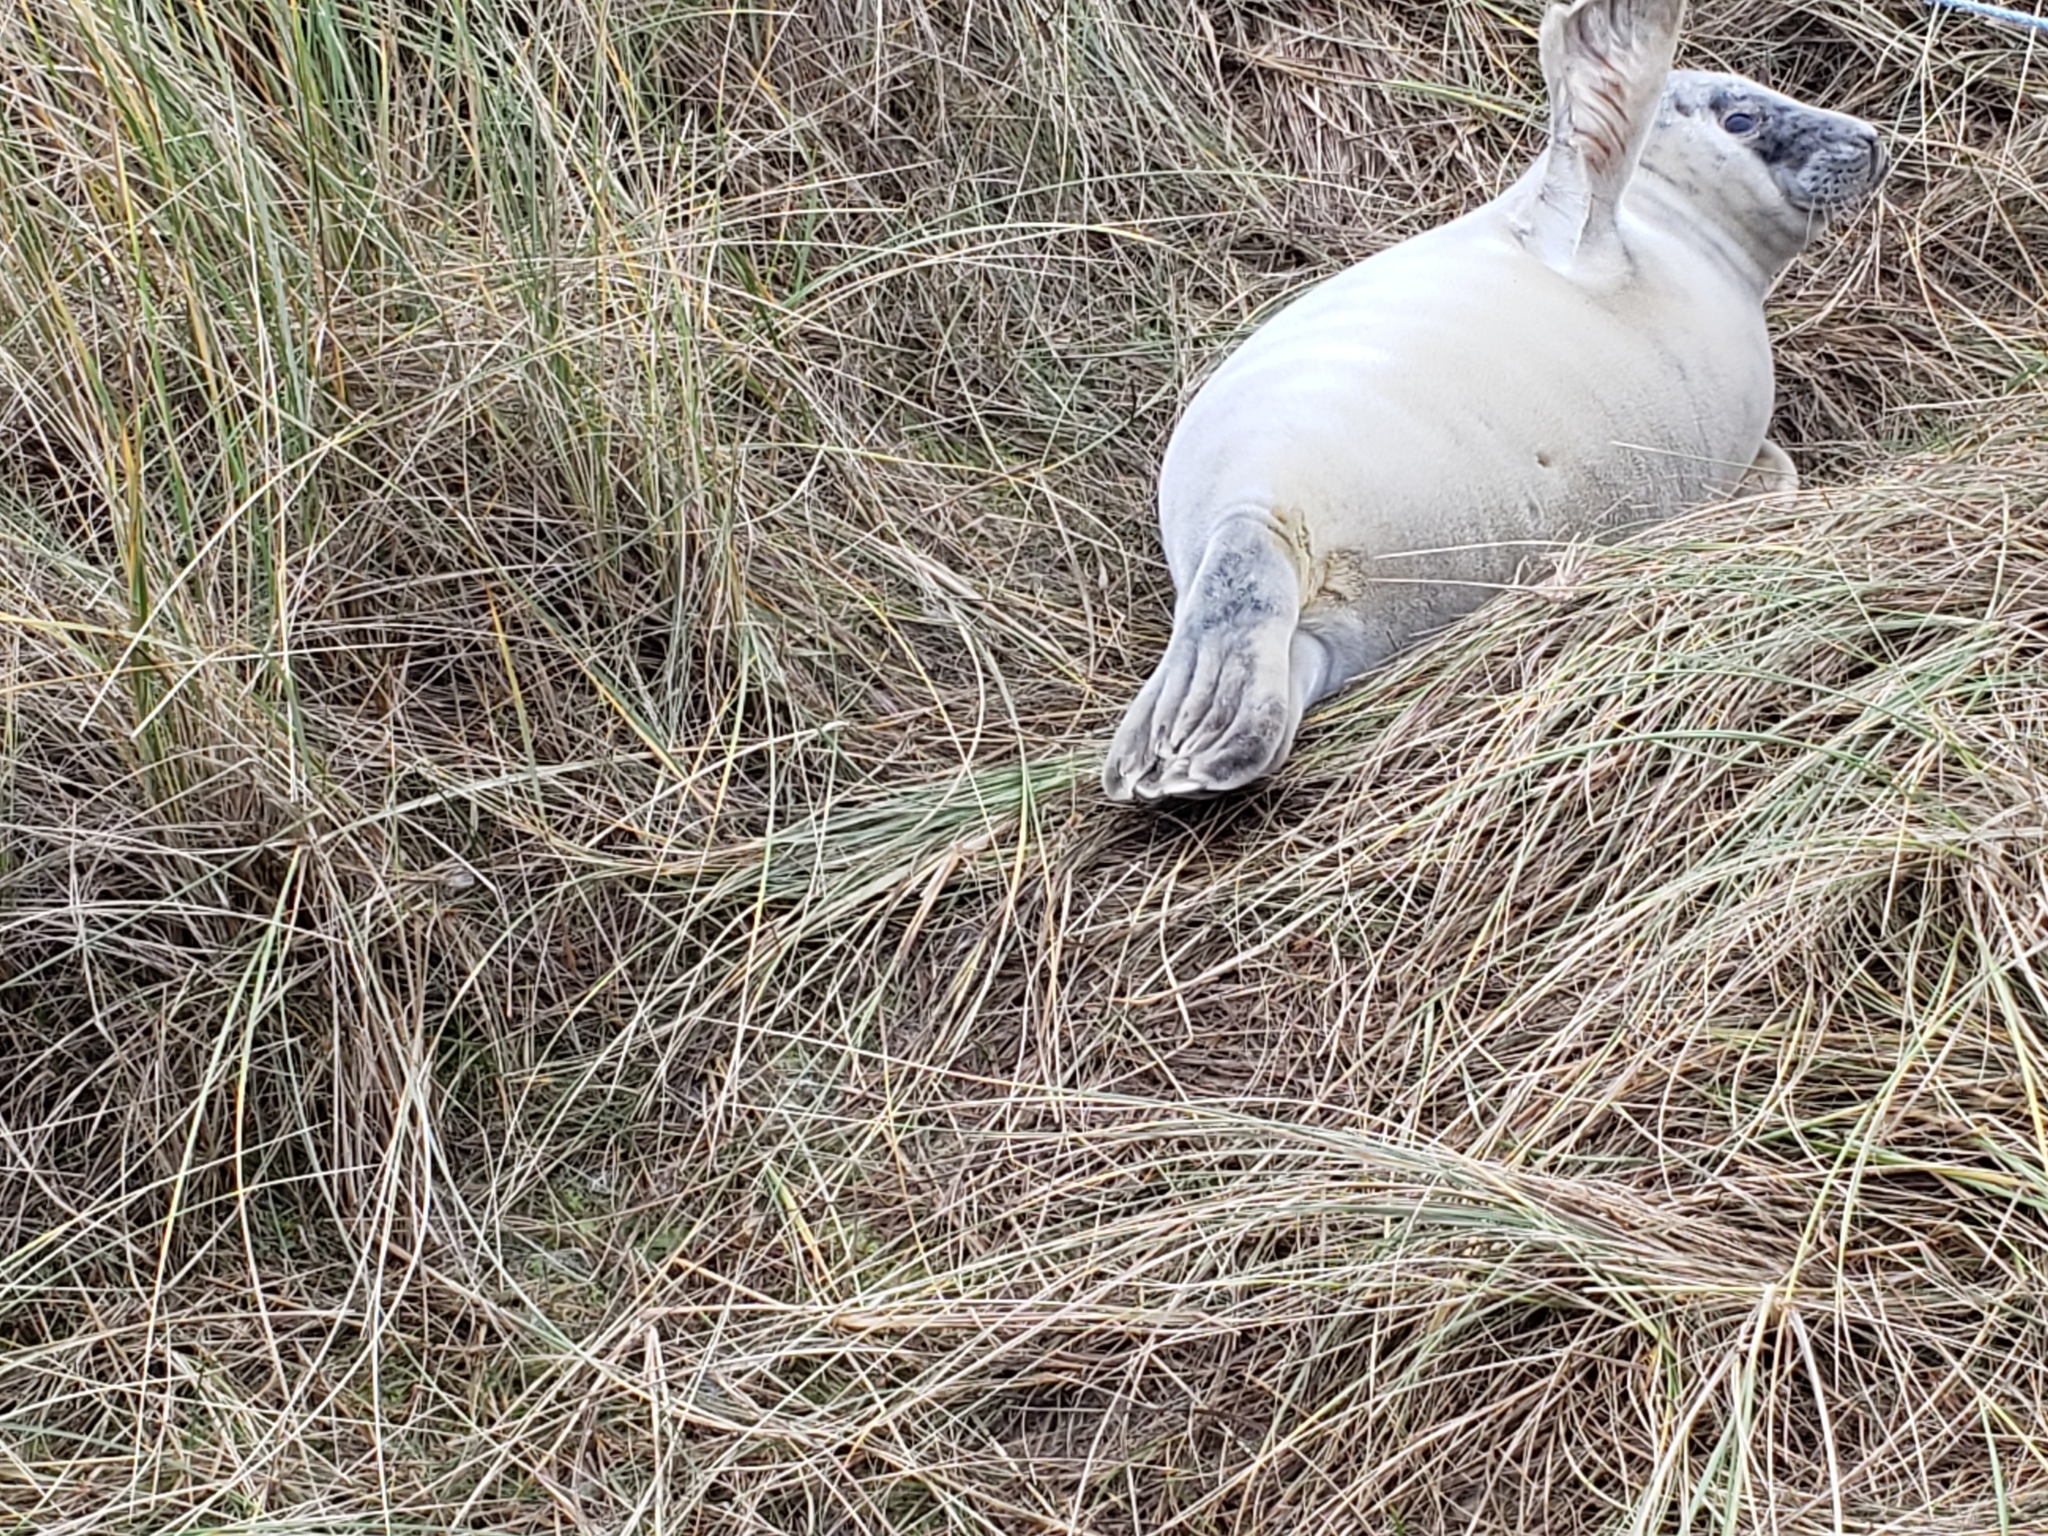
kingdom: Animalia
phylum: Chordata
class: Mammalia
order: Carnivora
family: Phocidae
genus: Halichoerus
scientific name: Halichoerus grypus
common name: Grey seal
